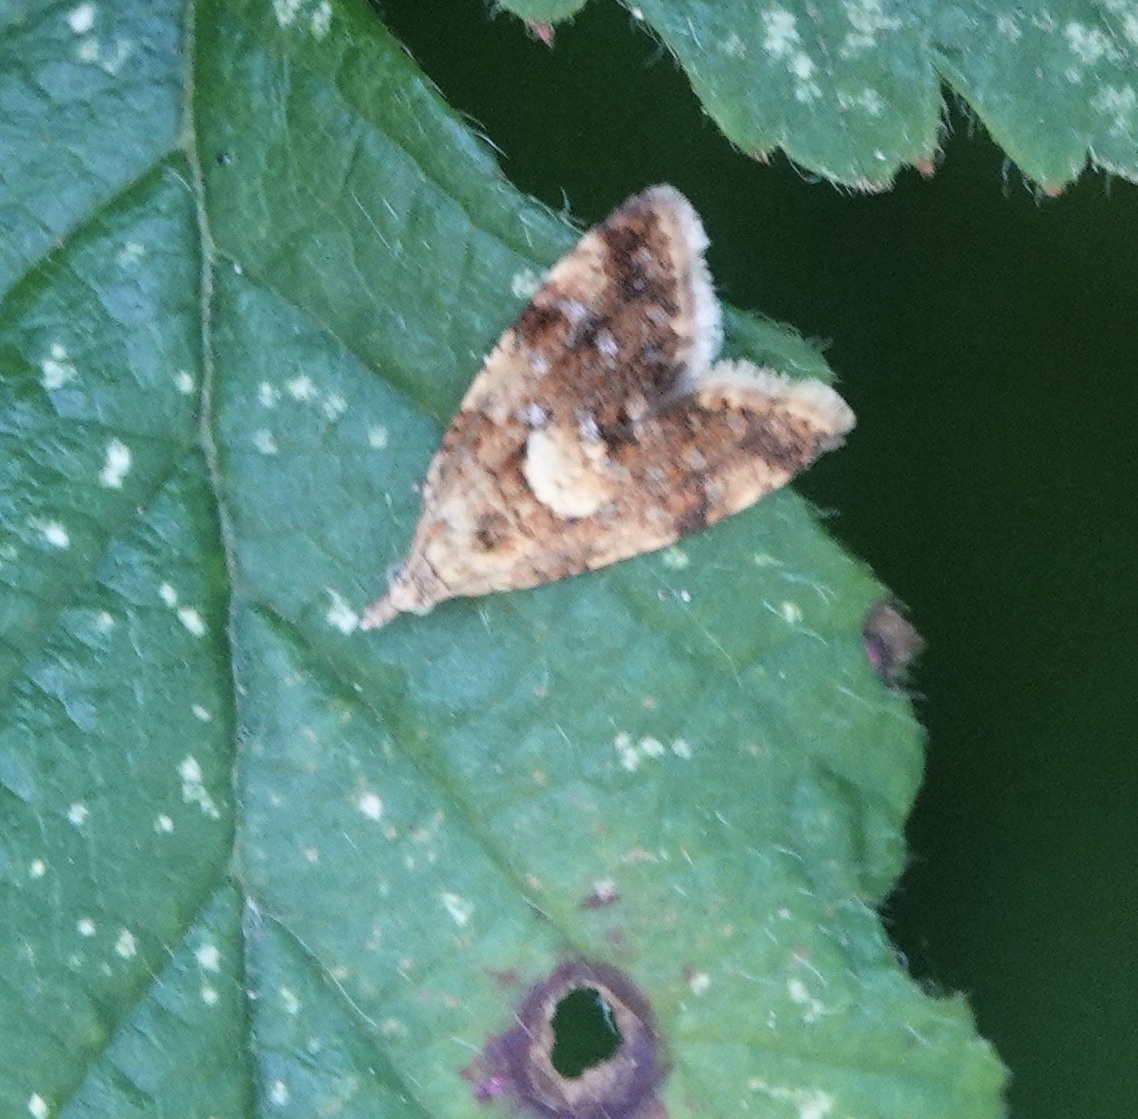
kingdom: Animalia
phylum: Arthropoda
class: Insecta
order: Lepidoptera
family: Tortricidae
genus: Pseudargyrotoza
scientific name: Pseudargyrotoza conwagana
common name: Yellow-spot twist
